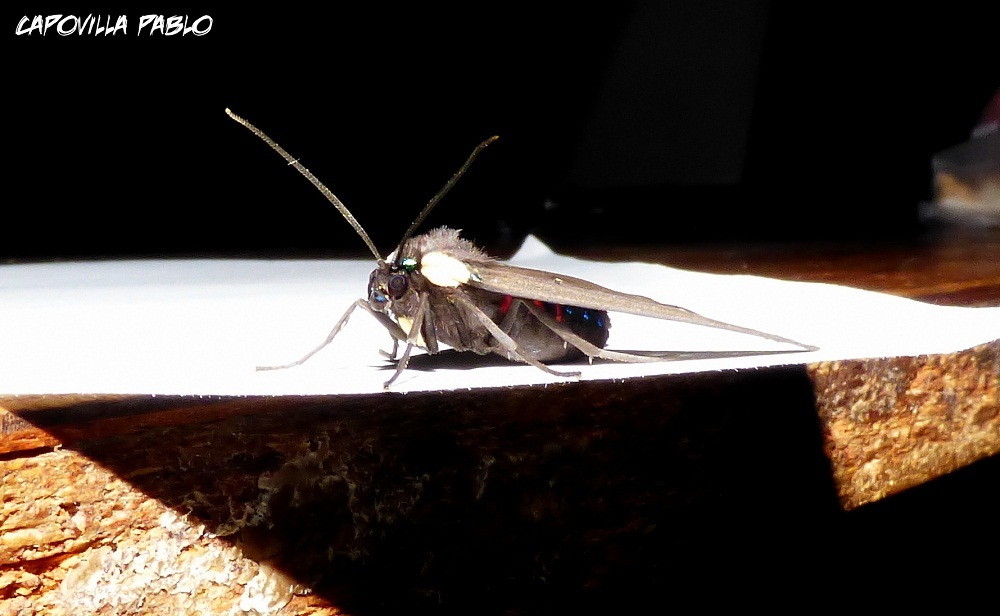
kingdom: Animalia
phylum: Arthropoda
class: Insecta
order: Lepidoptera
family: Erebidae
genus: Euclera
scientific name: Euclera
